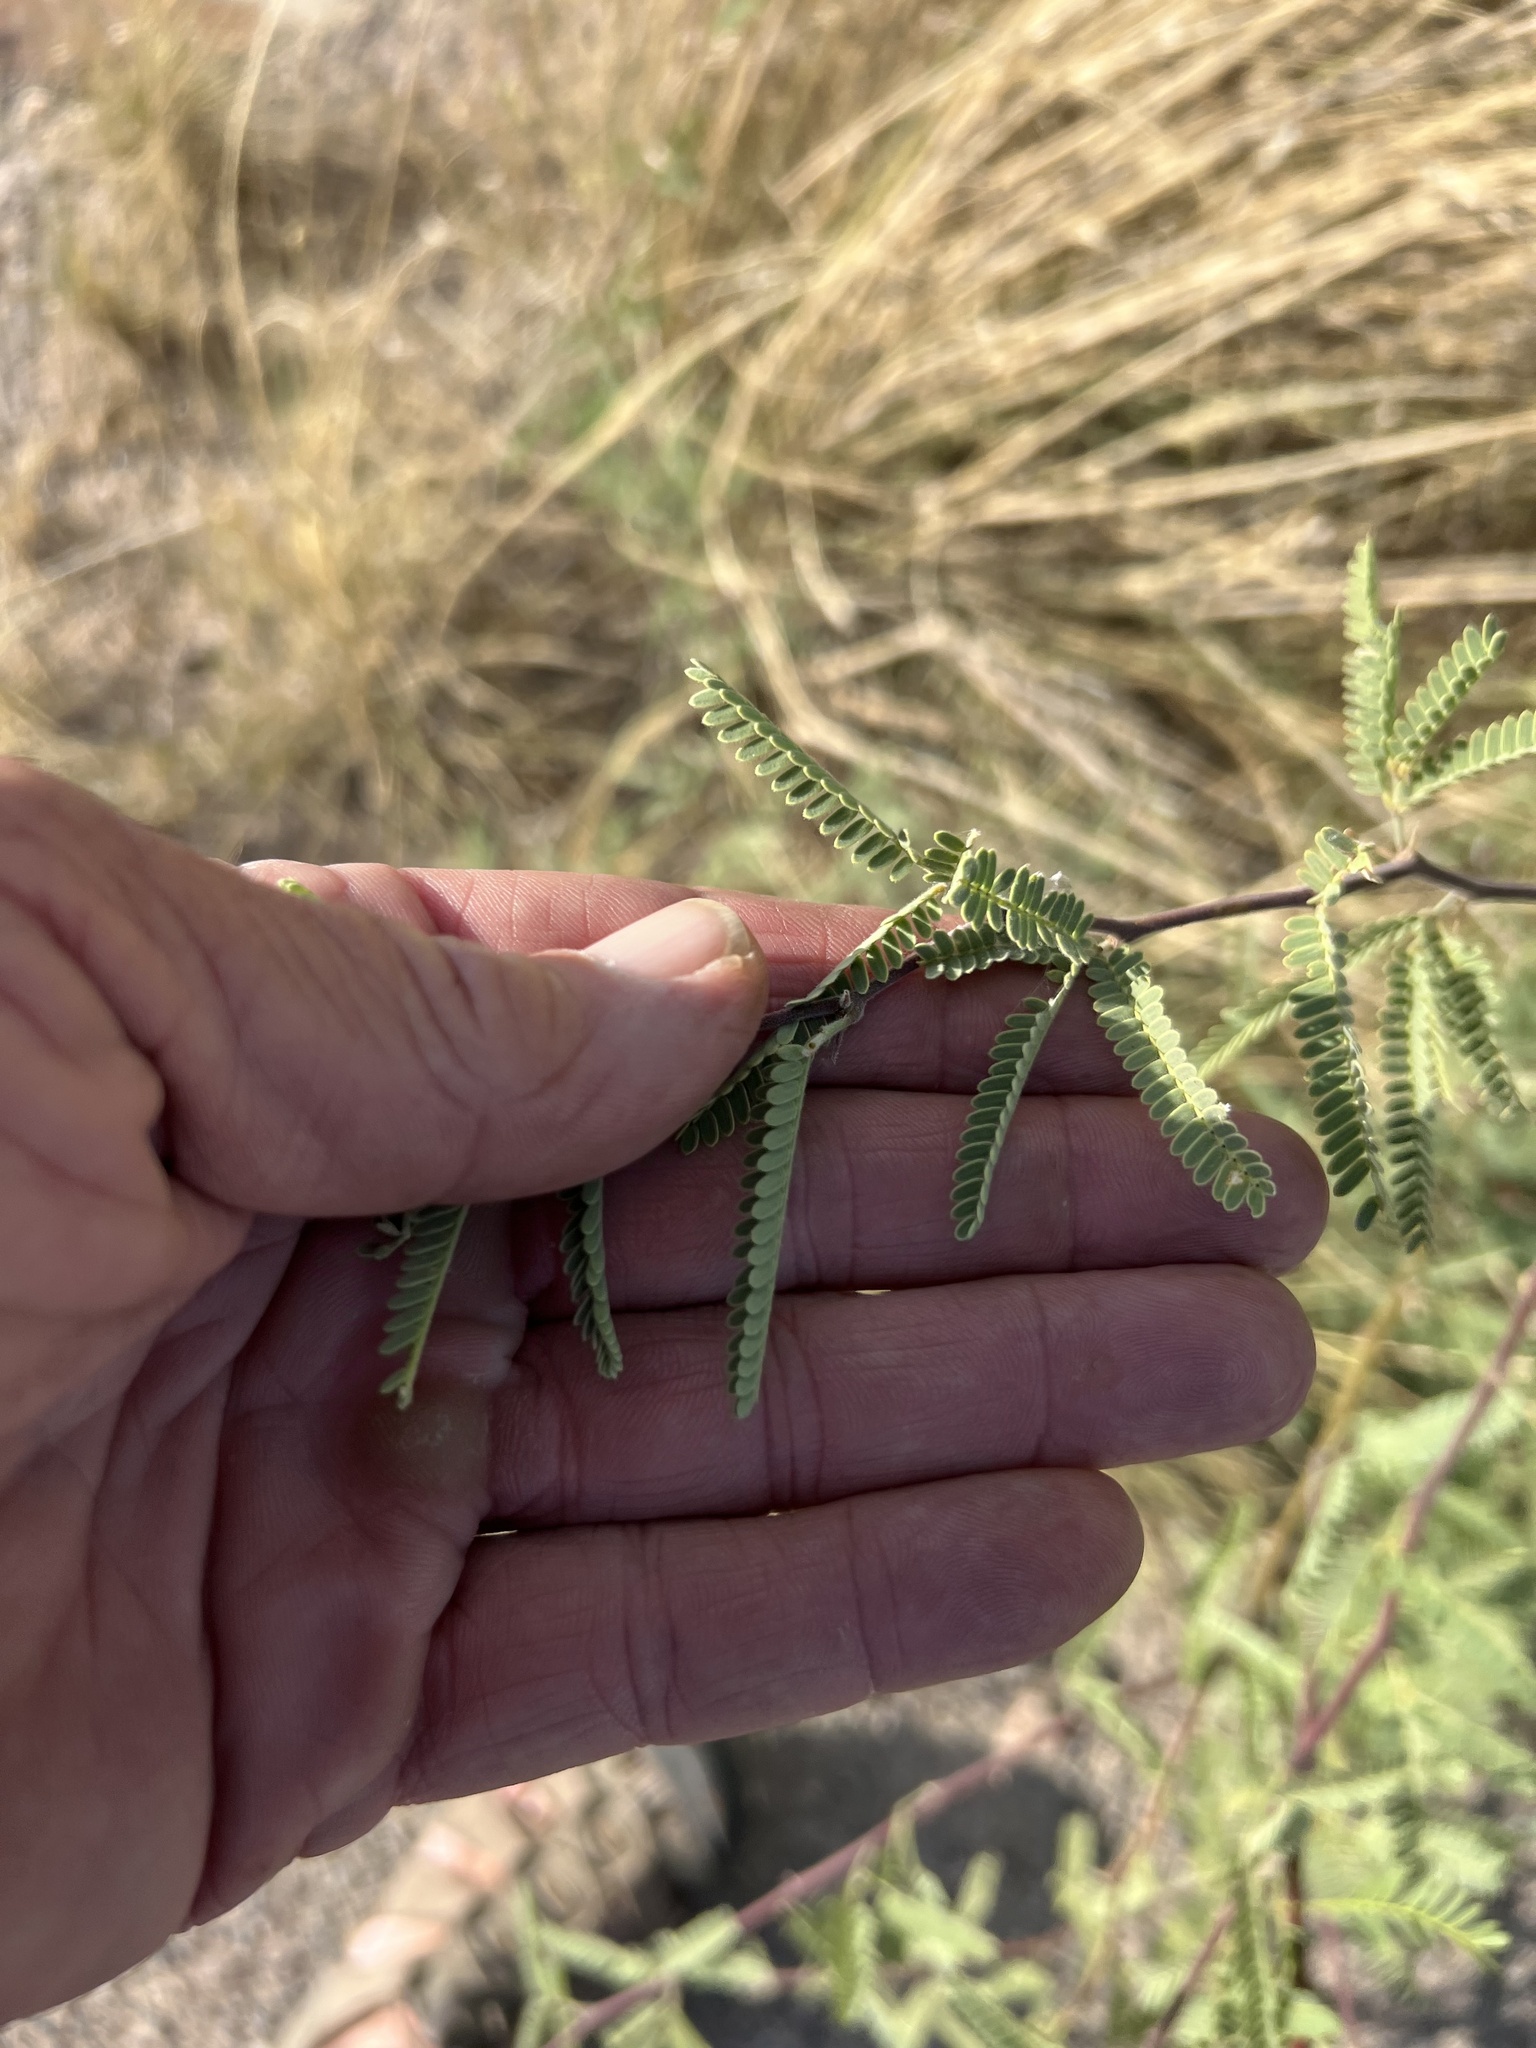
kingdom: Plantae
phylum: Tracheophyta
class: Magnoliopsida
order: Fabales
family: Fabaceae
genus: Prosopis
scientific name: Prosopis velutina
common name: Velvet mesquite
